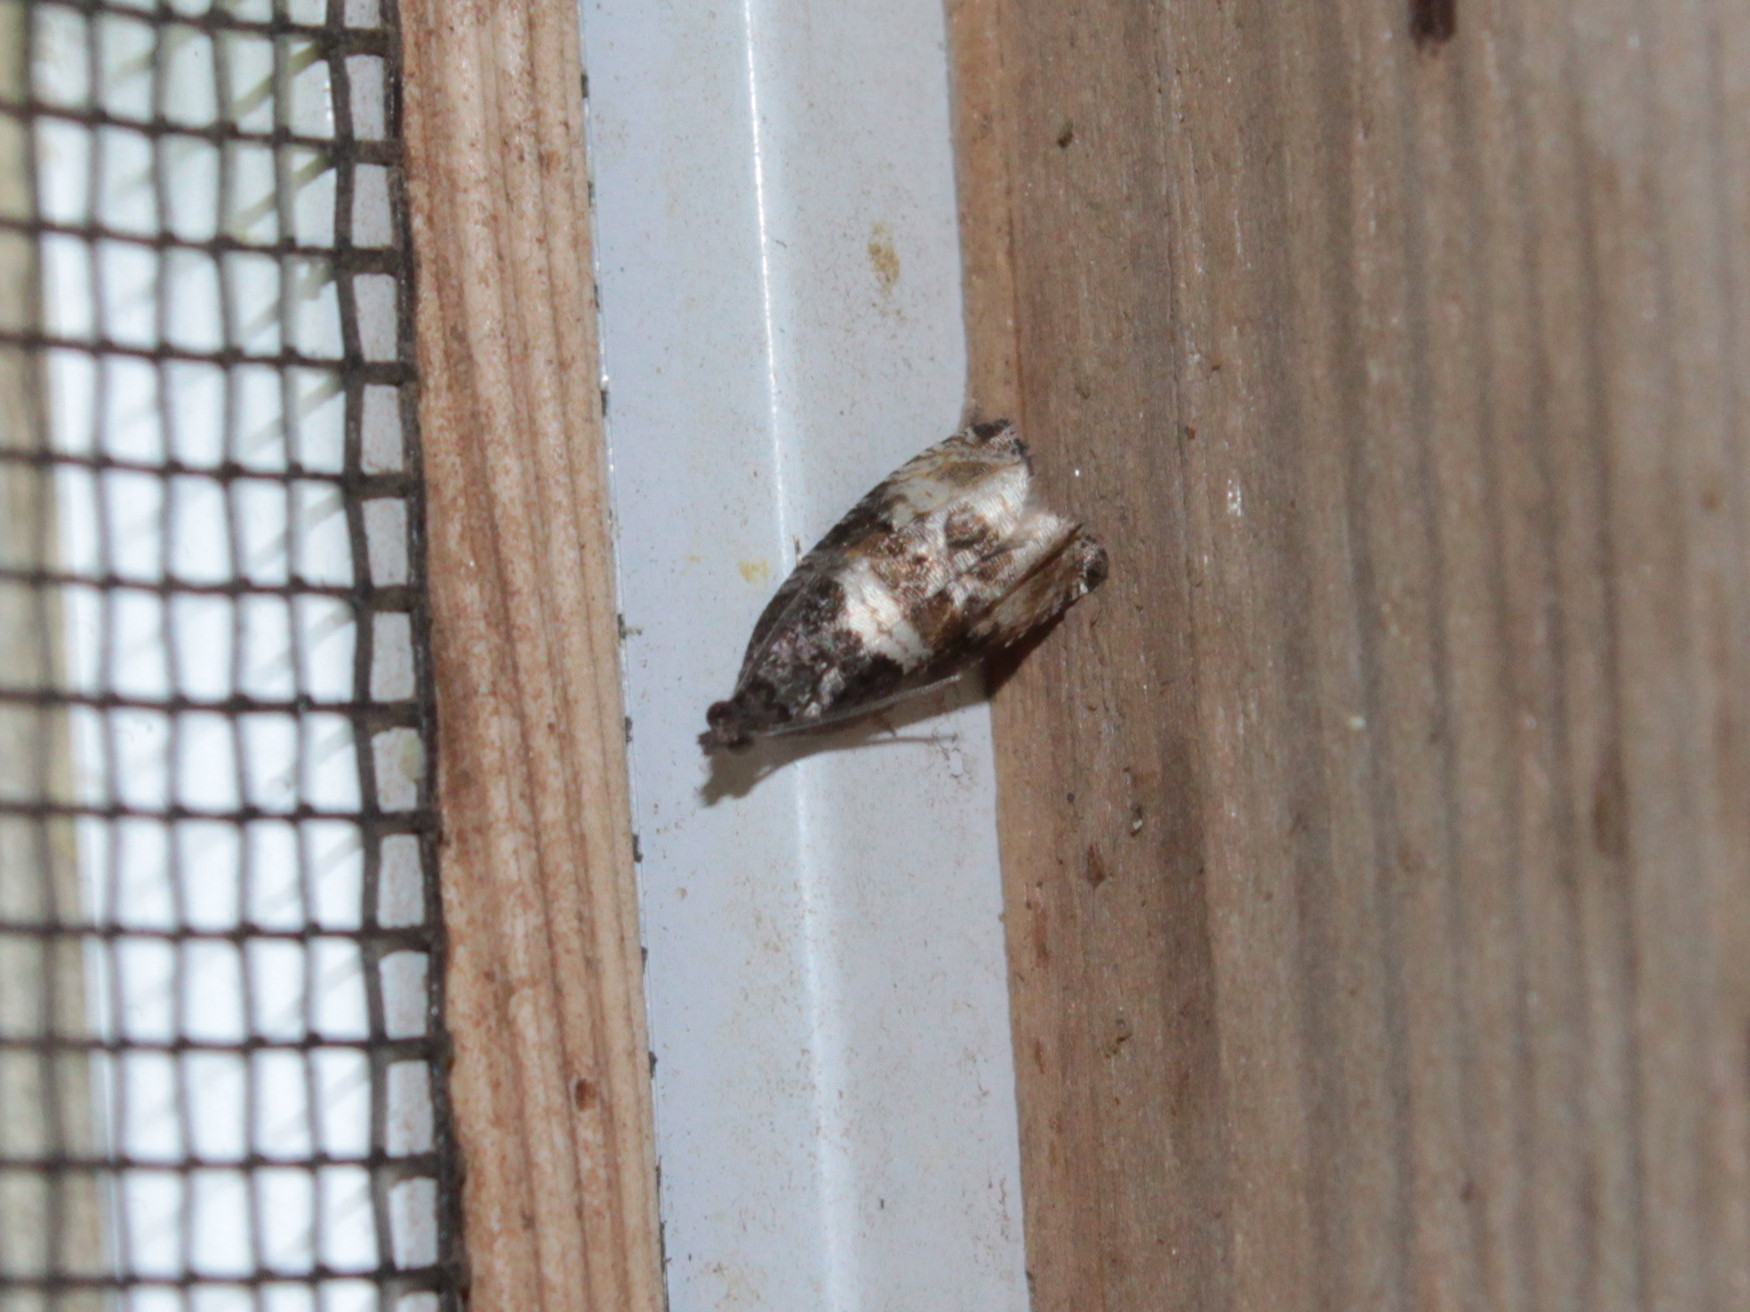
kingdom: Animalia
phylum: Arthropoda
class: Insecta
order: Lepidoptera
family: Tortricidae
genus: Hulda
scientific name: Hulda impudens
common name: Impudent hulda moth
